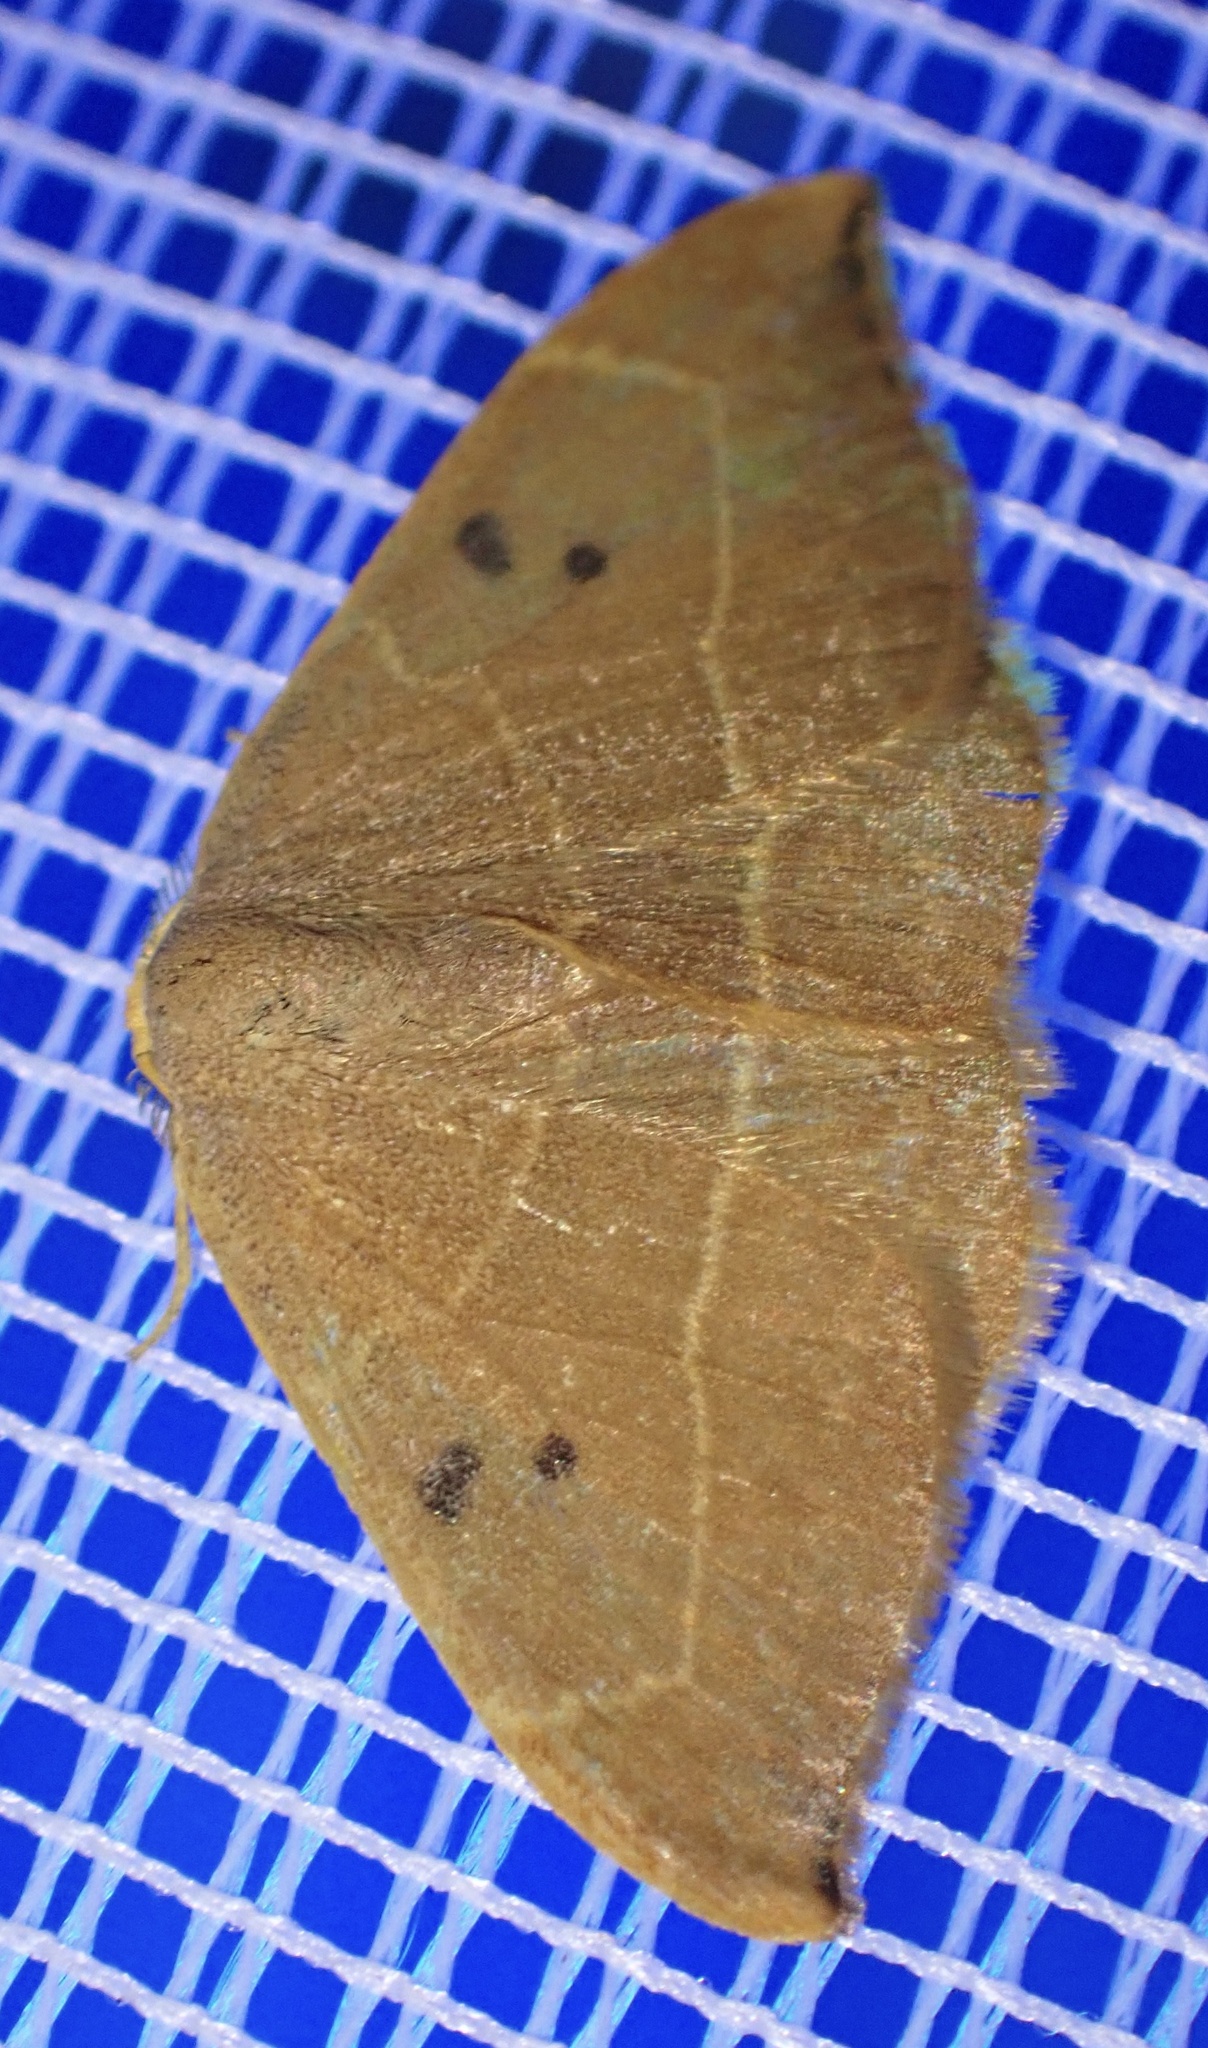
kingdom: Animalia
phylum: Arthropoda
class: Insecta
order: Lepidoptera
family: Drepanidae
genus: Watsonalla
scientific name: Watsonalla binaria
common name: Oak hook-tip
